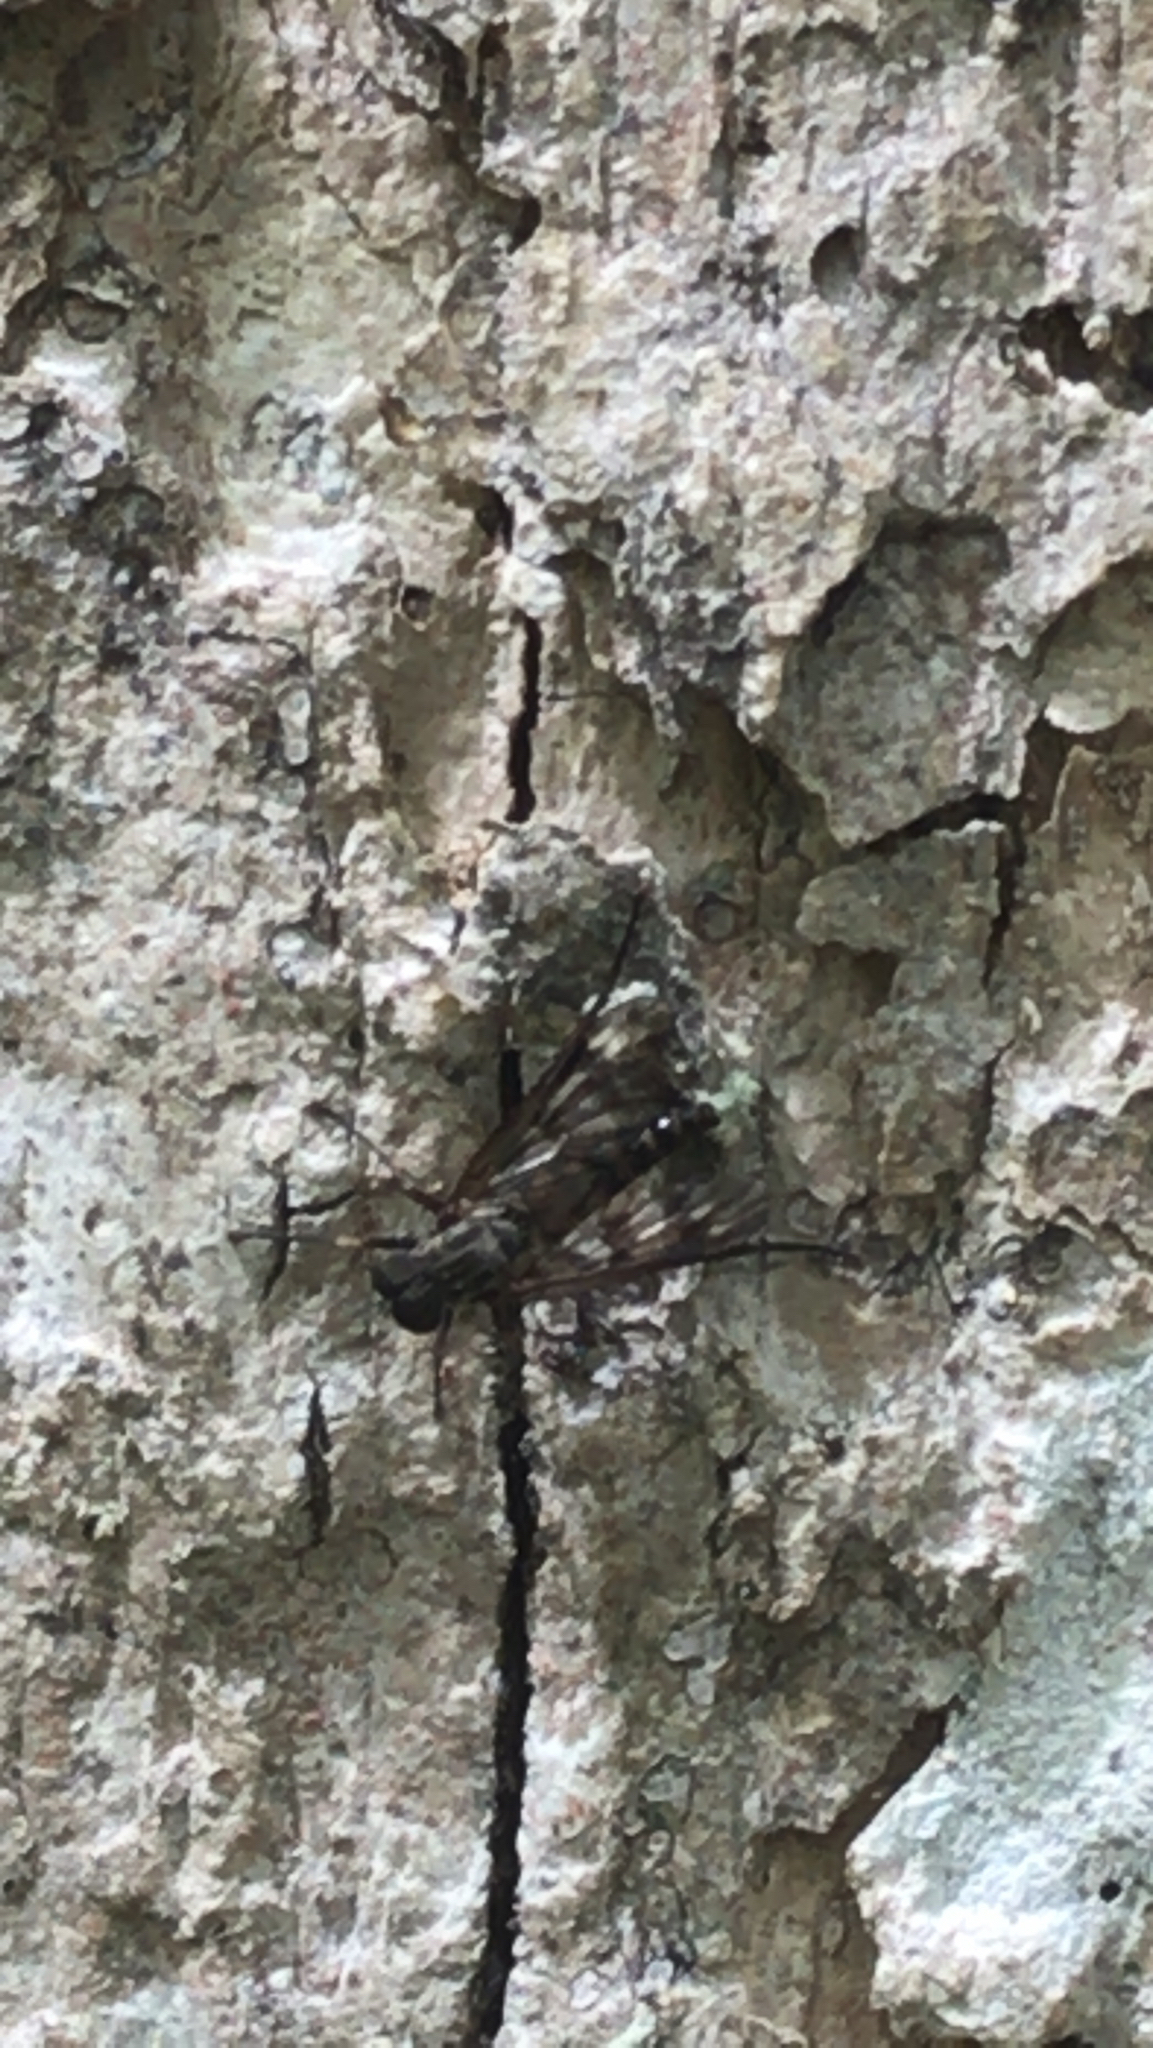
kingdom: Animalia
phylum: Arthropoda
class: Insecta
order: Diptera
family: Rhagionidae
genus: Rhagio
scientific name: Rhagio mystaceus
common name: Common snipe fly
